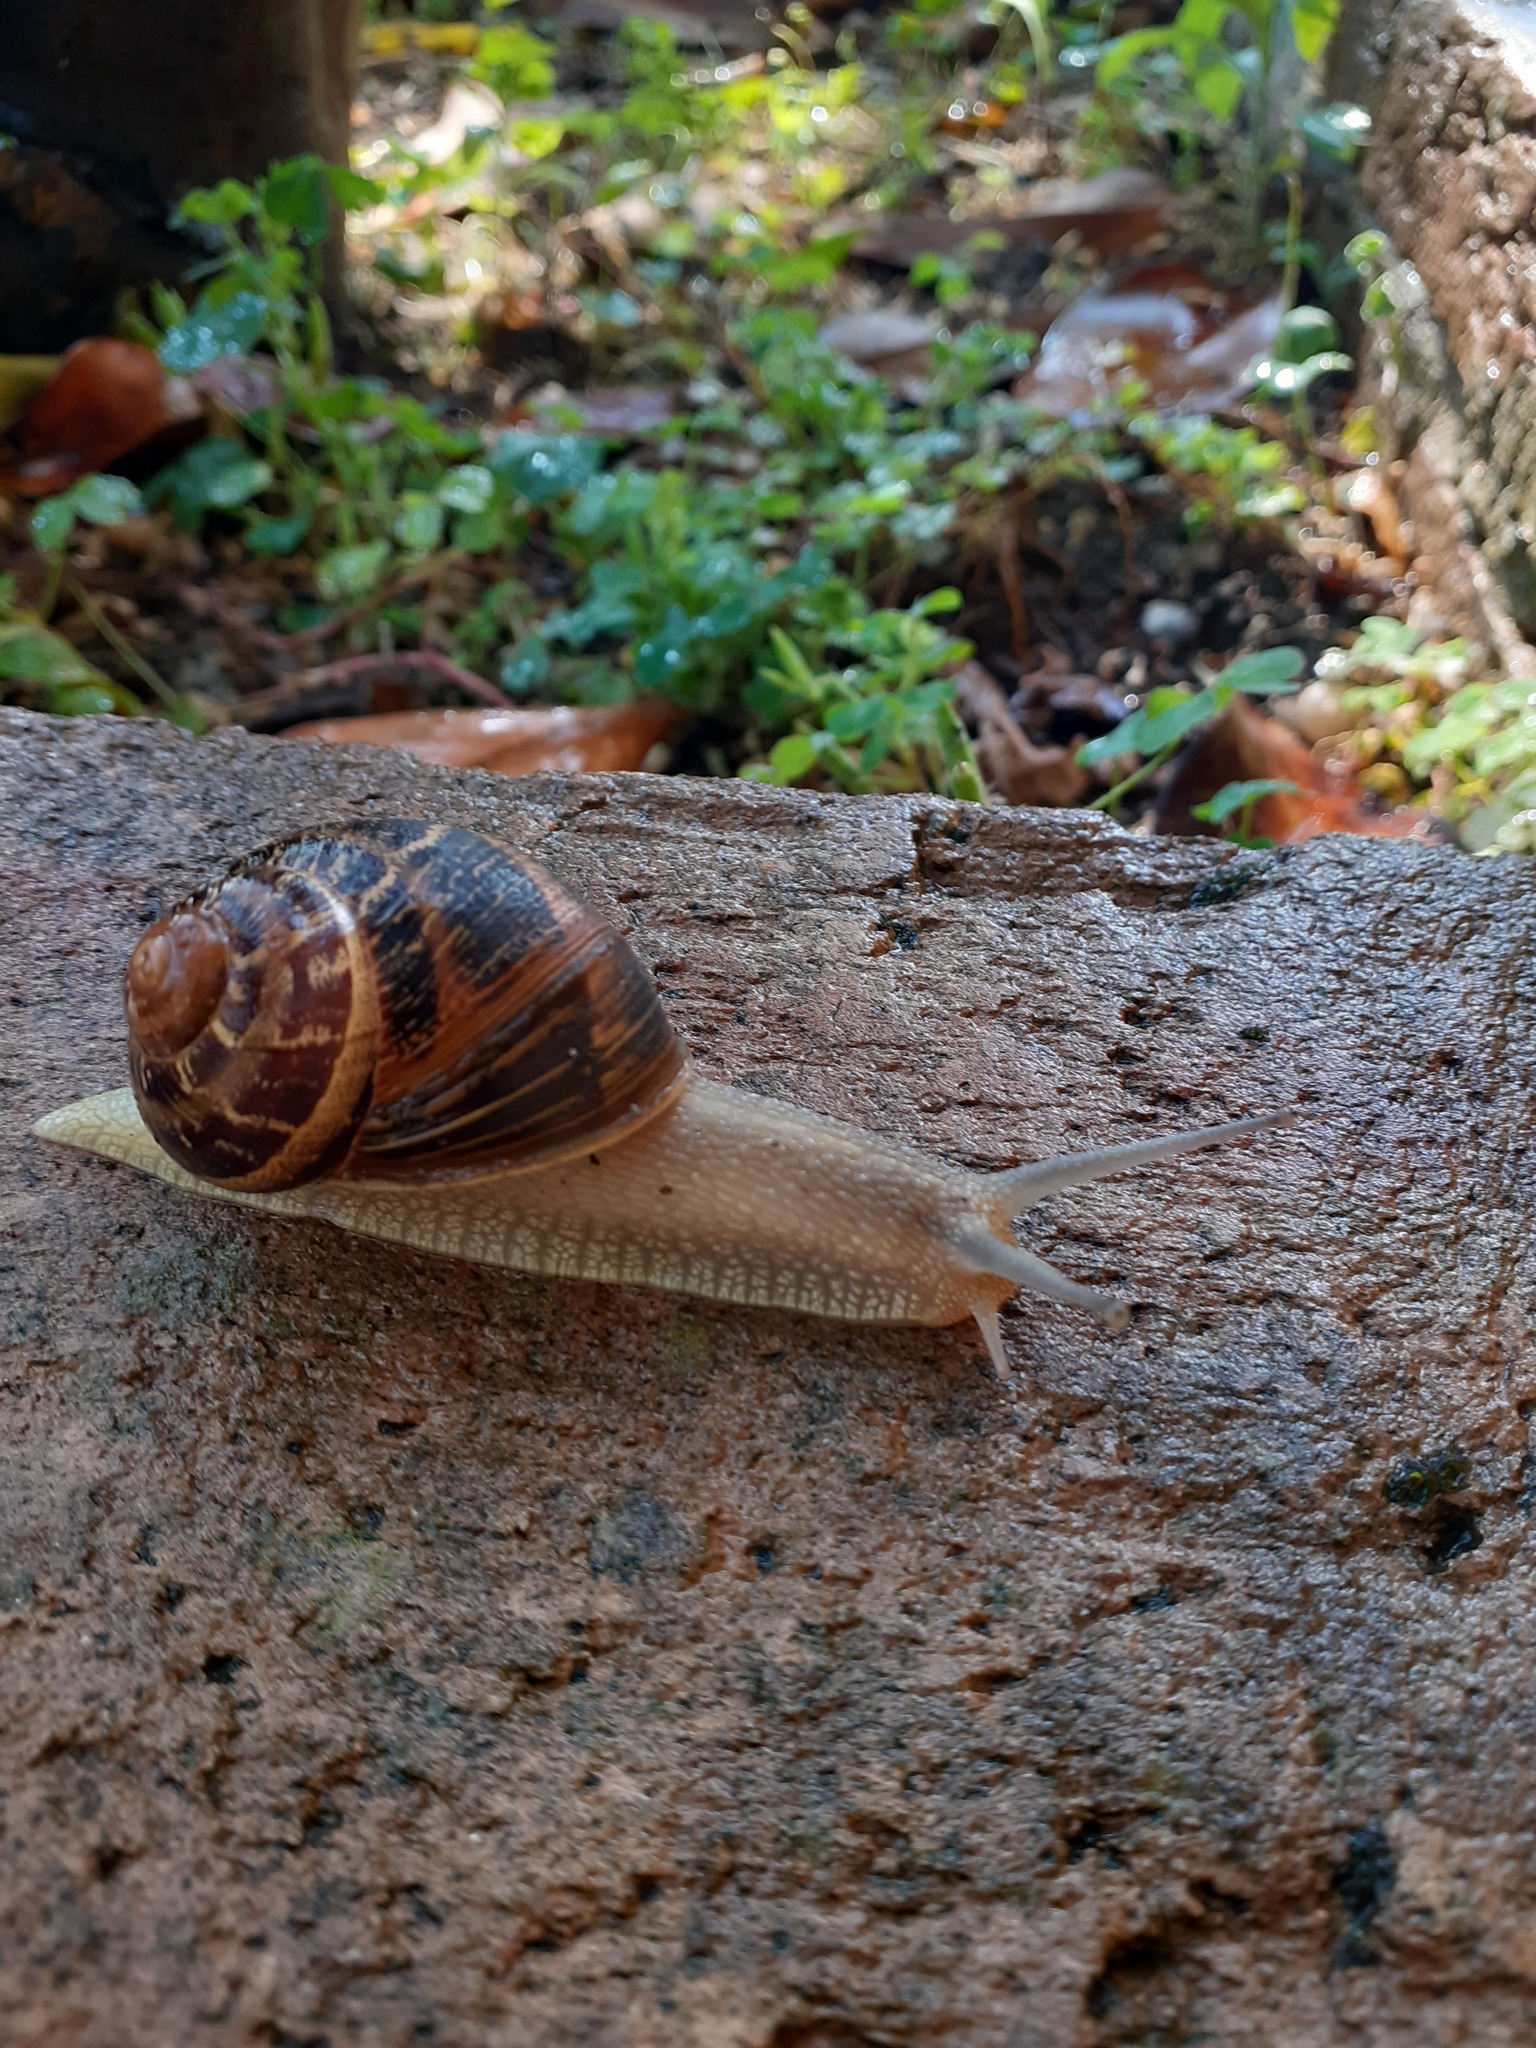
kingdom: Animalia
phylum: Mollusca
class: Gastropoda
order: Stylommatophora
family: Helicidae
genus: Cornu
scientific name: Cornu aspersum
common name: Brown garden snail
